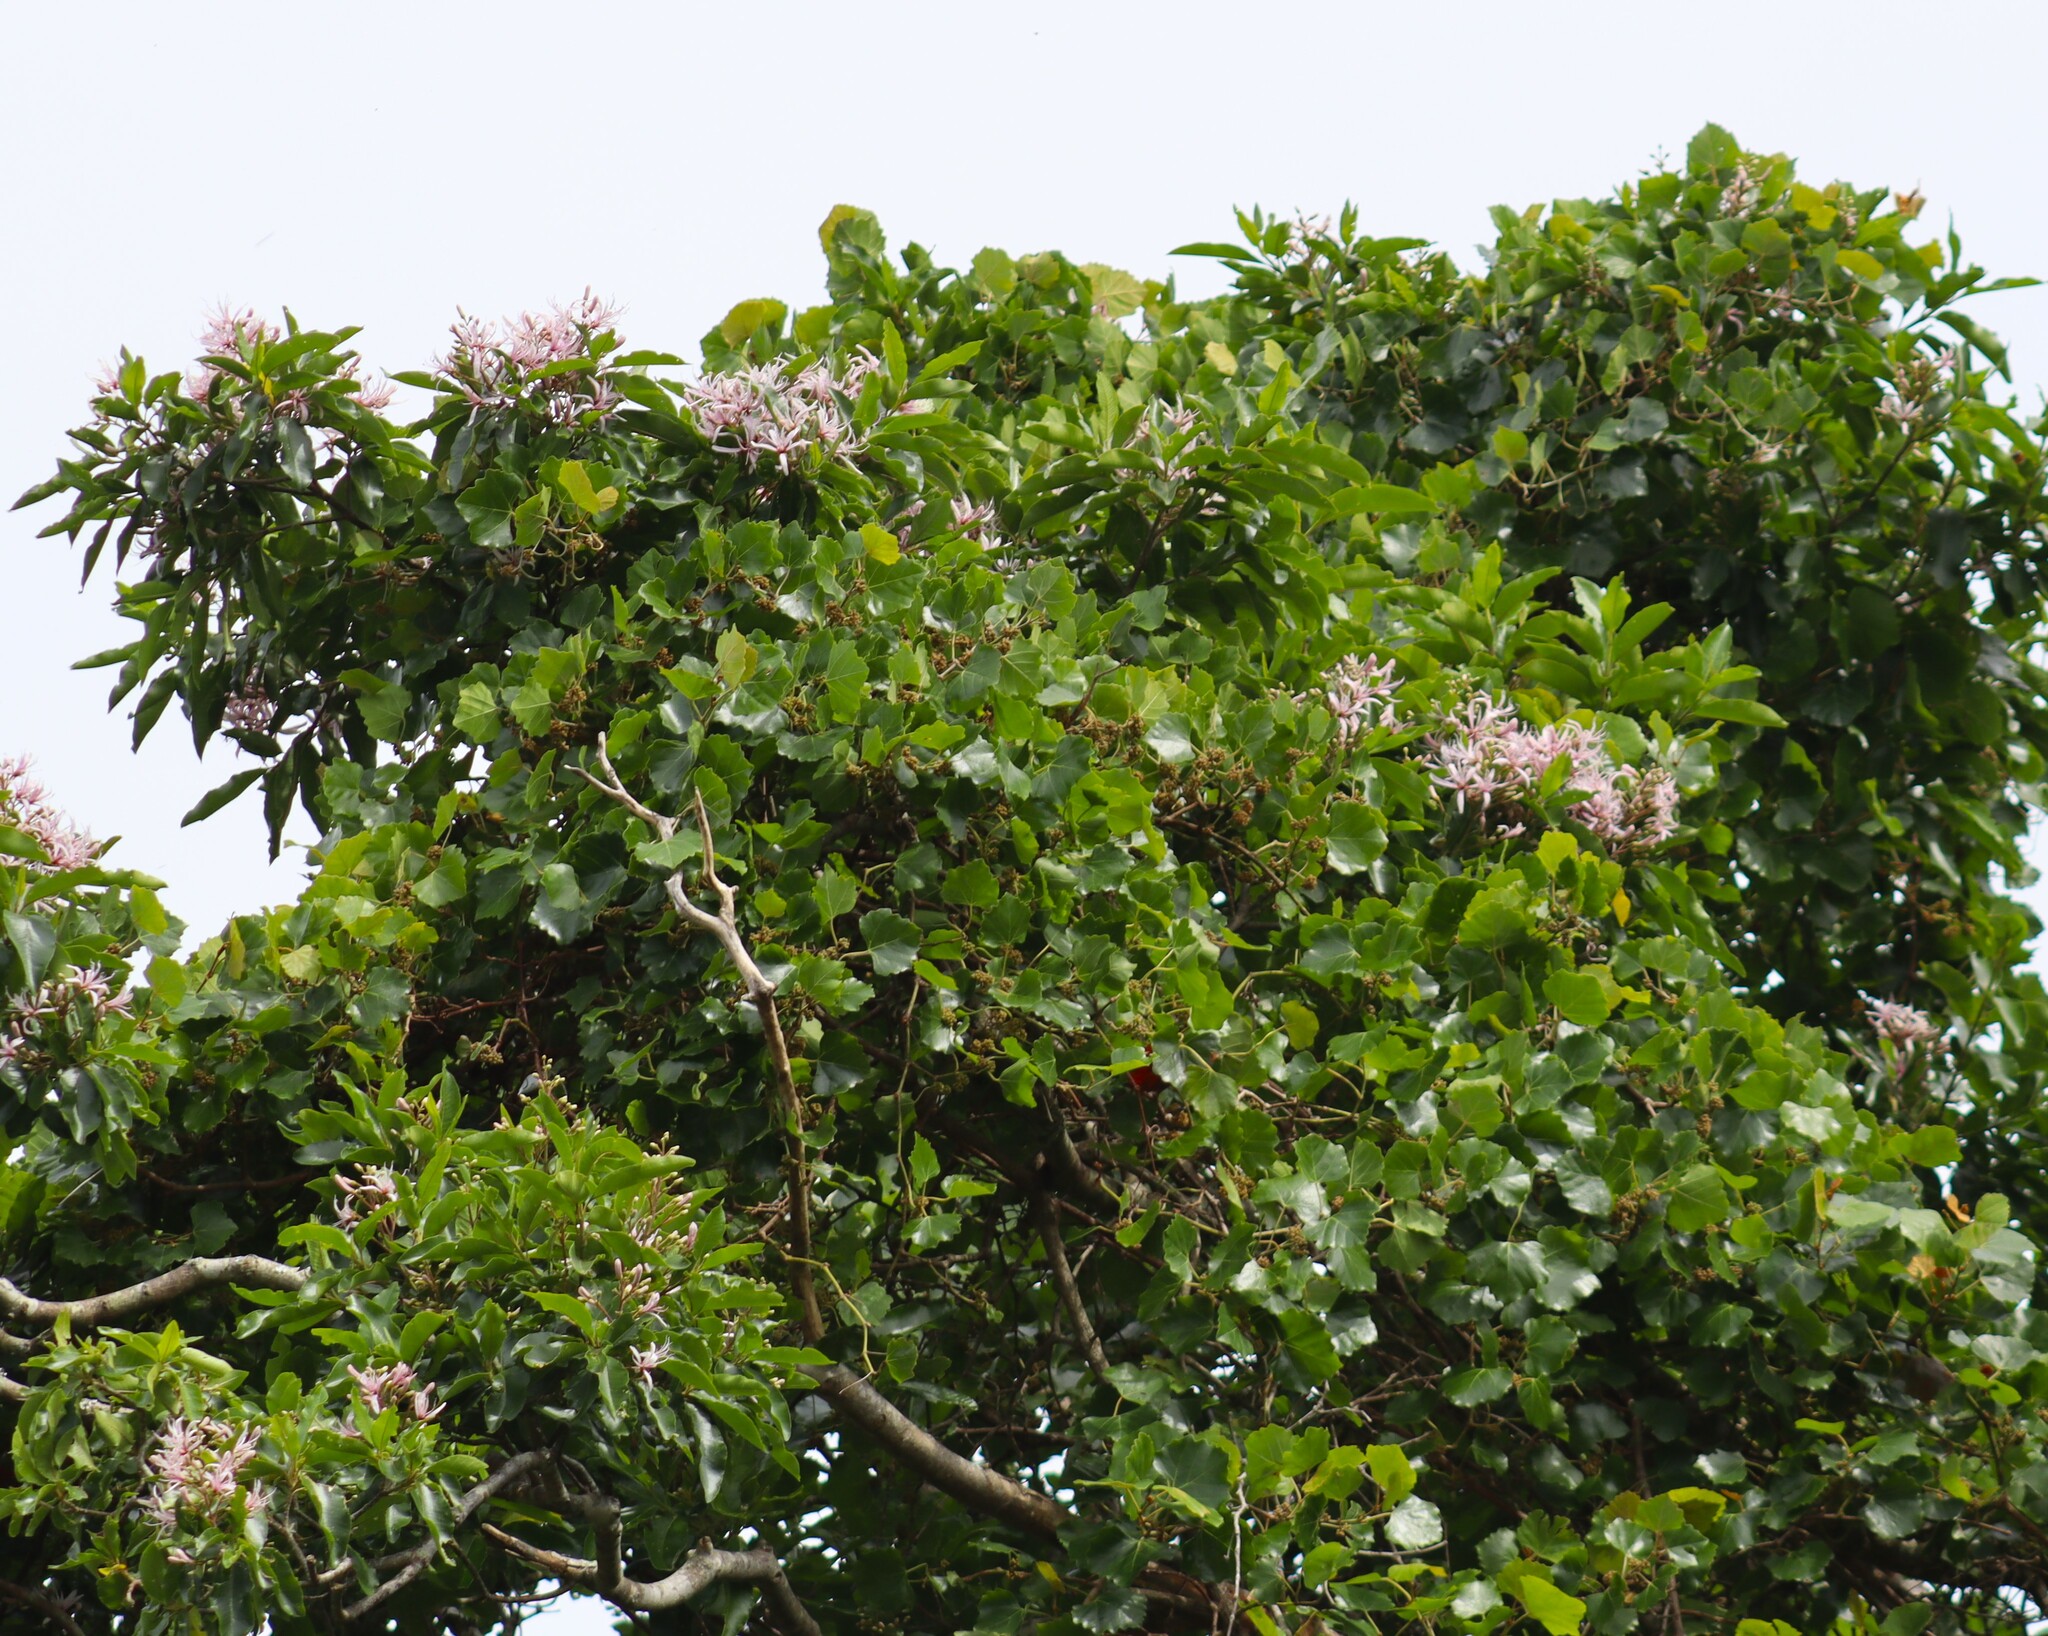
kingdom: Plantae
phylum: Tracheophyta
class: Magnoliopsida
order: Sapindales
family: Rutaceae
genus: Calodendrum
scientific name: Calodendrum capense
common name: Cape chestnut
